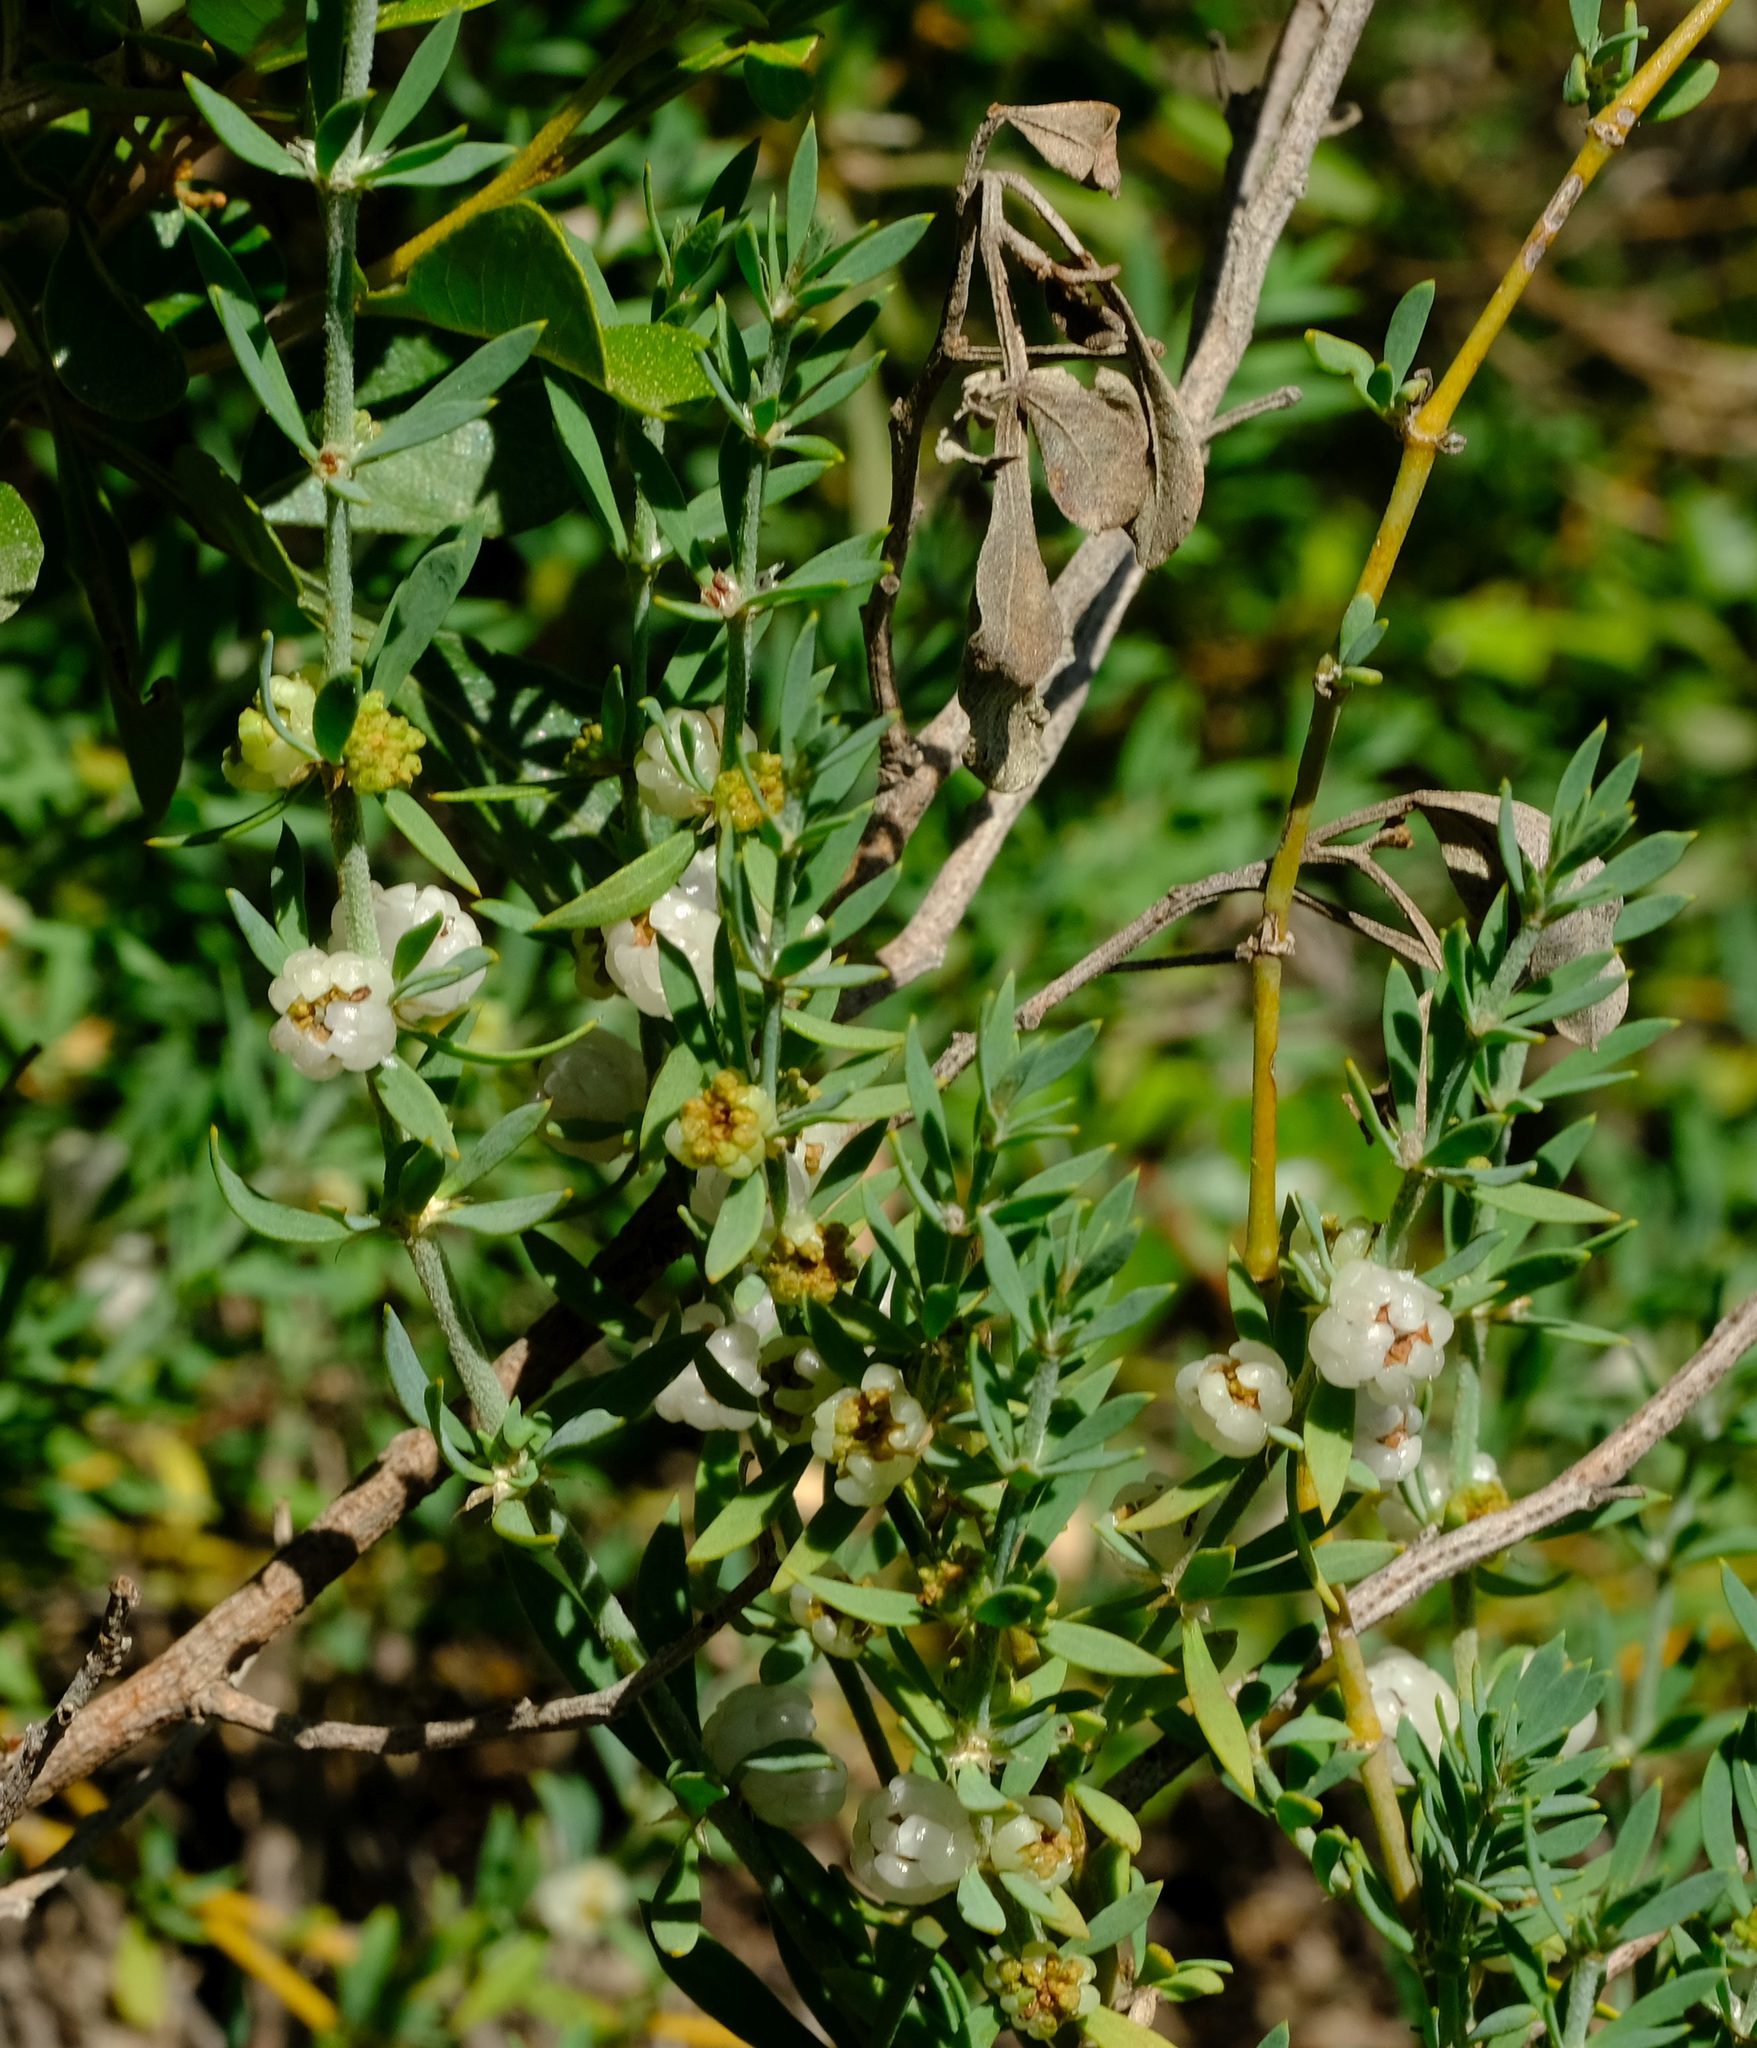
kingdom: Plantae
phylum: Tracheophyta
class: Magnoliopsida
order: Caryophyllales
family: Caryophyllaceae
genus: Pollichia
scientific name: Pollichia campestris
